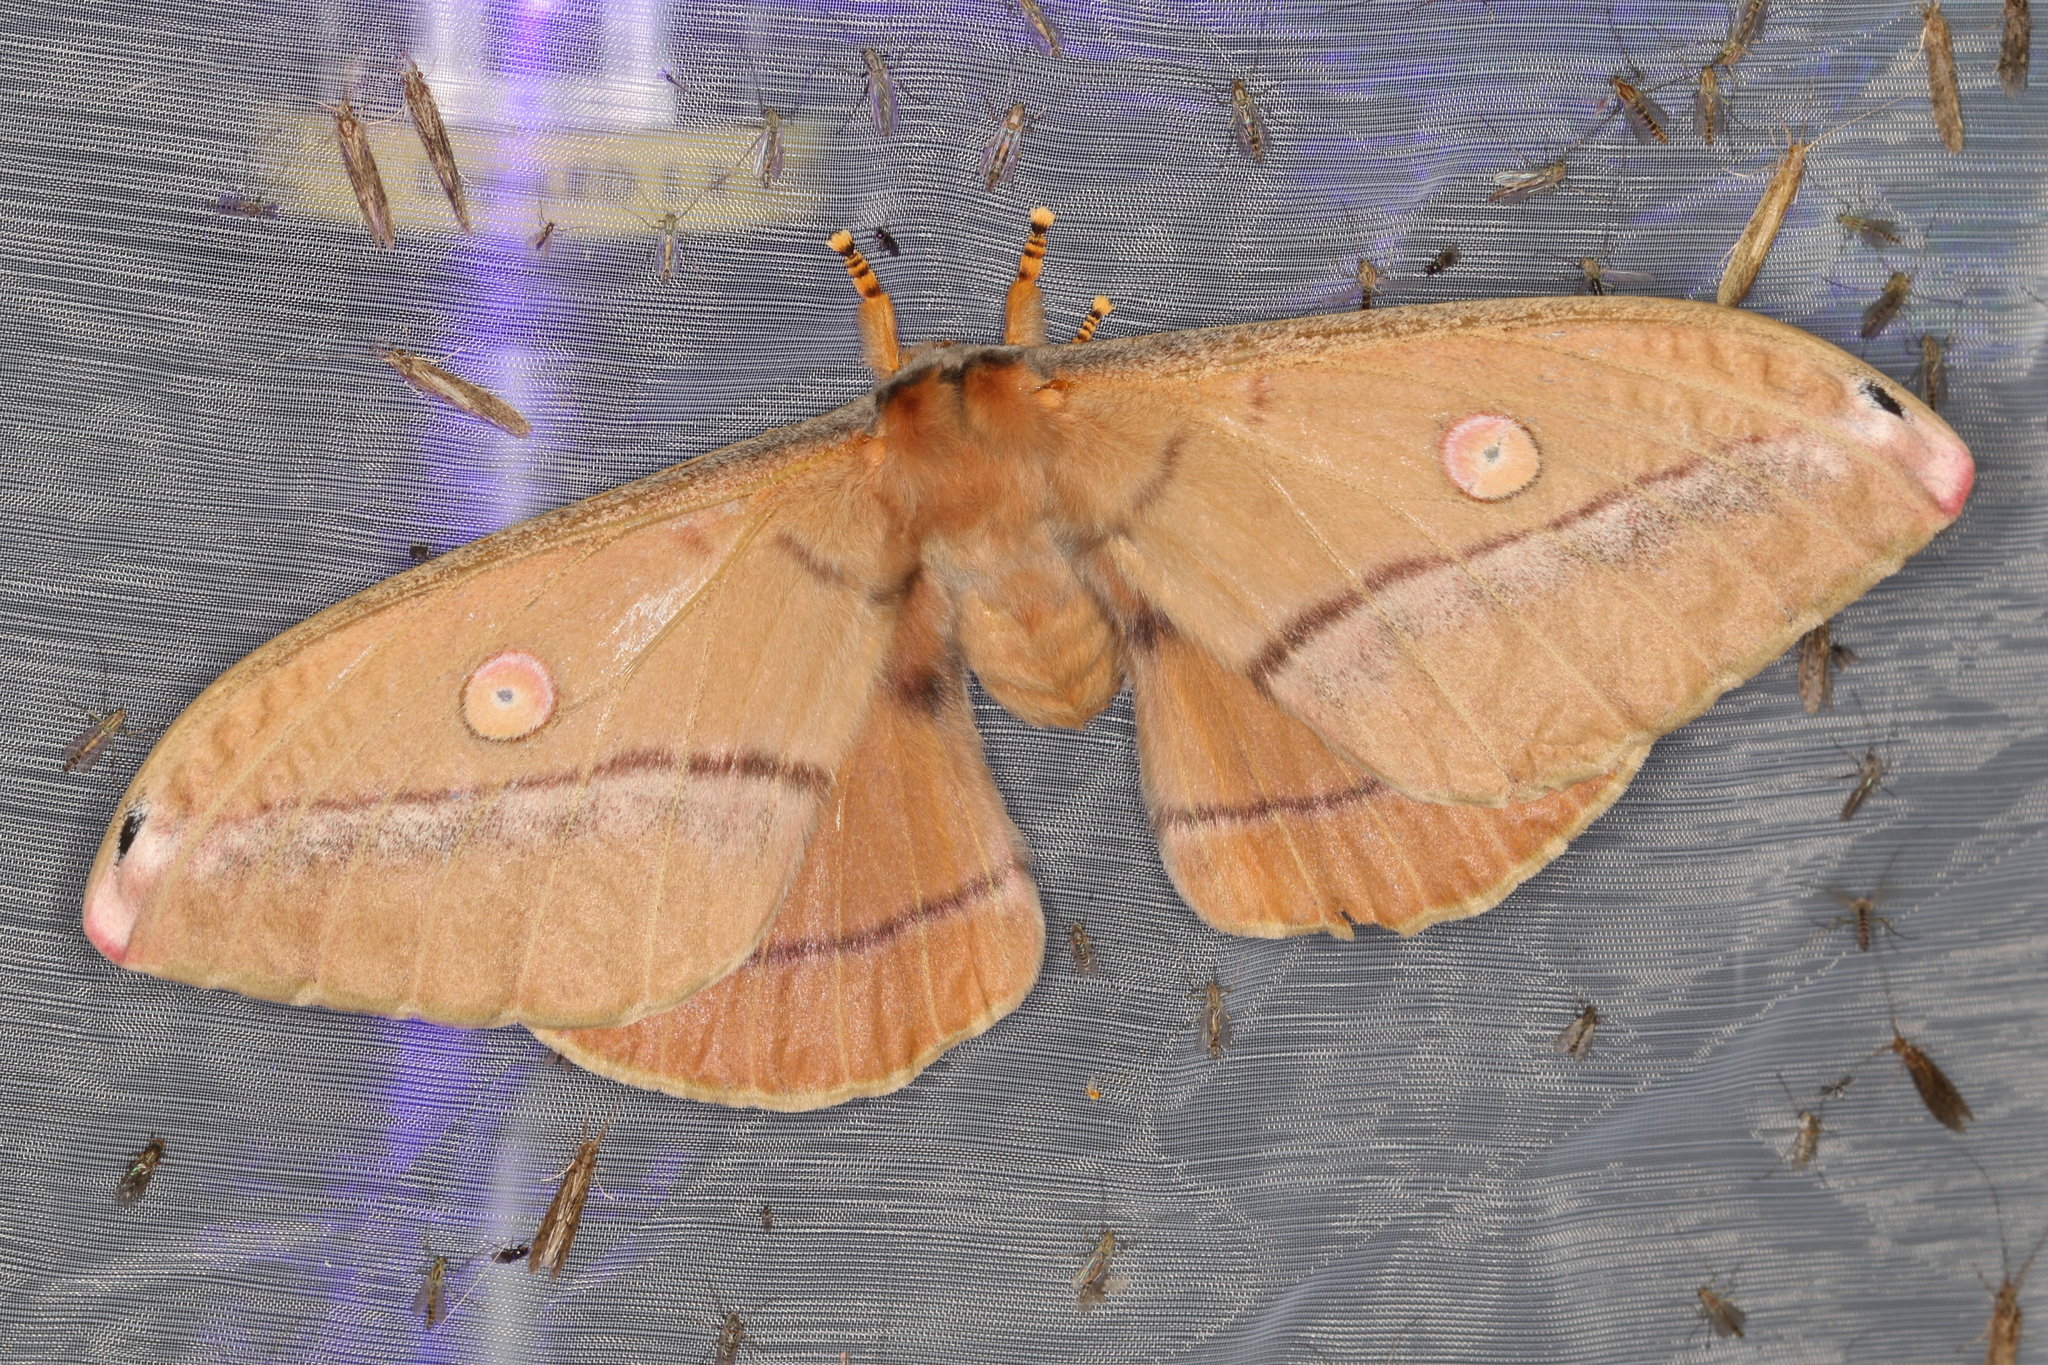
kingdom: Animalia
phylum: Arthropoda
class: Insecta
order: Lepidoptera
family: Saturniidae
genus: Opodiphthera
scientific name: Opodiphthera
